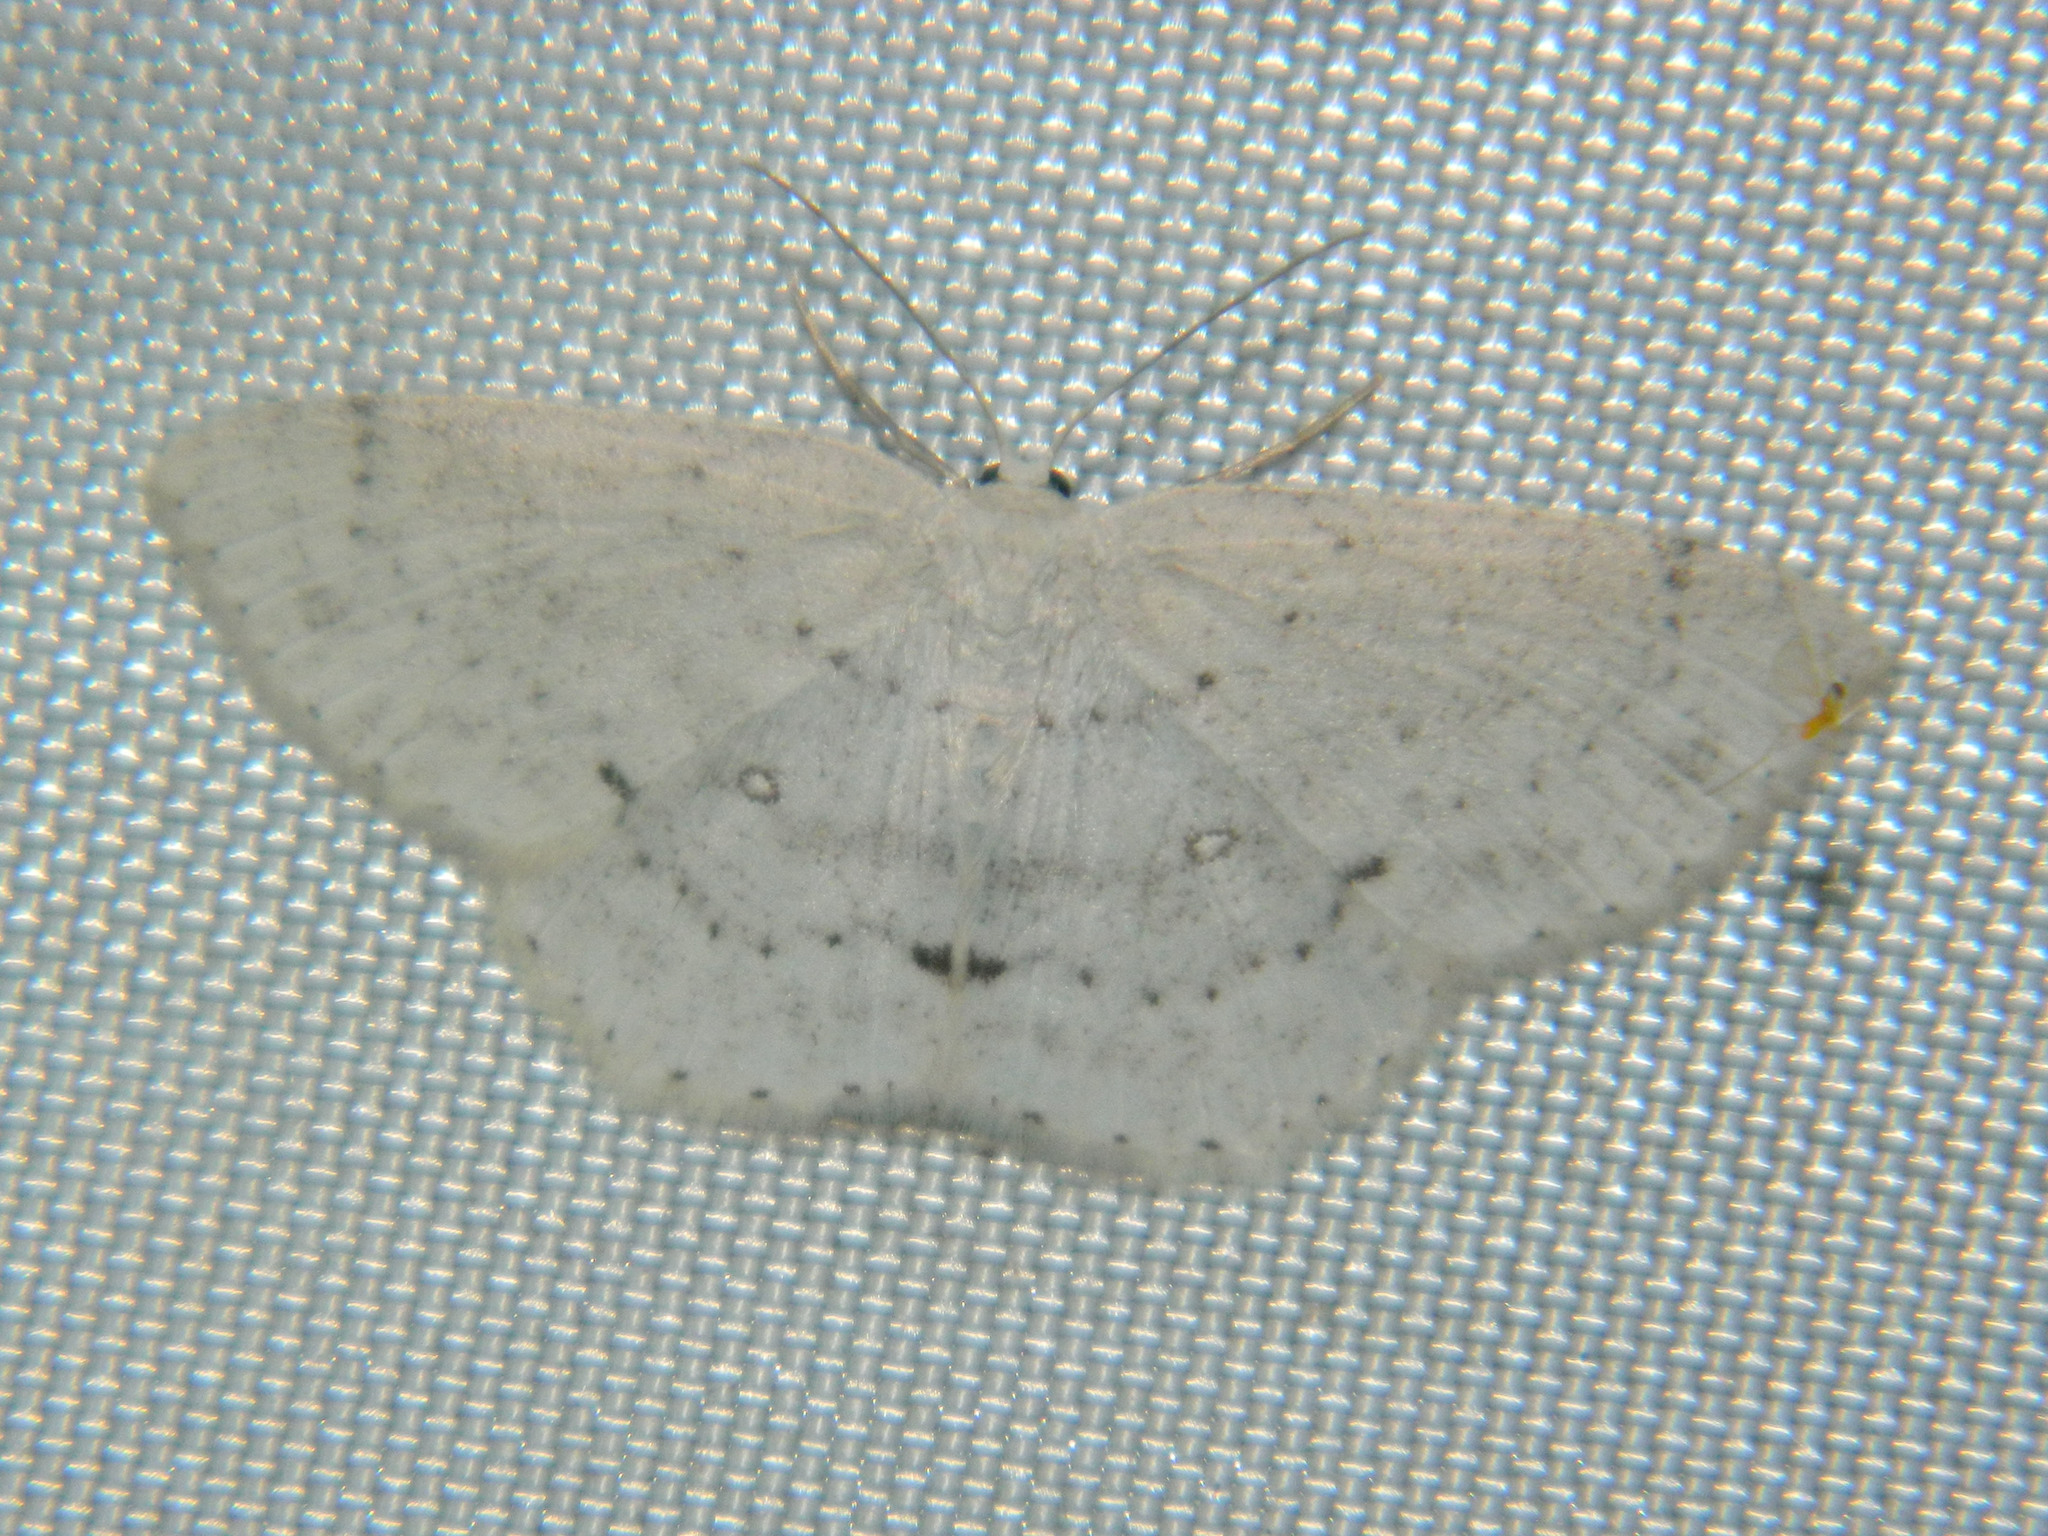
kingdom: Animalia
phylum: Arthropoda
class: Insecta
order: Lepidoptera
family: Geometridae
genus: Cyclophora
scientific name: Cyclophora pendulinaria
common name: Sweet fern geometer
